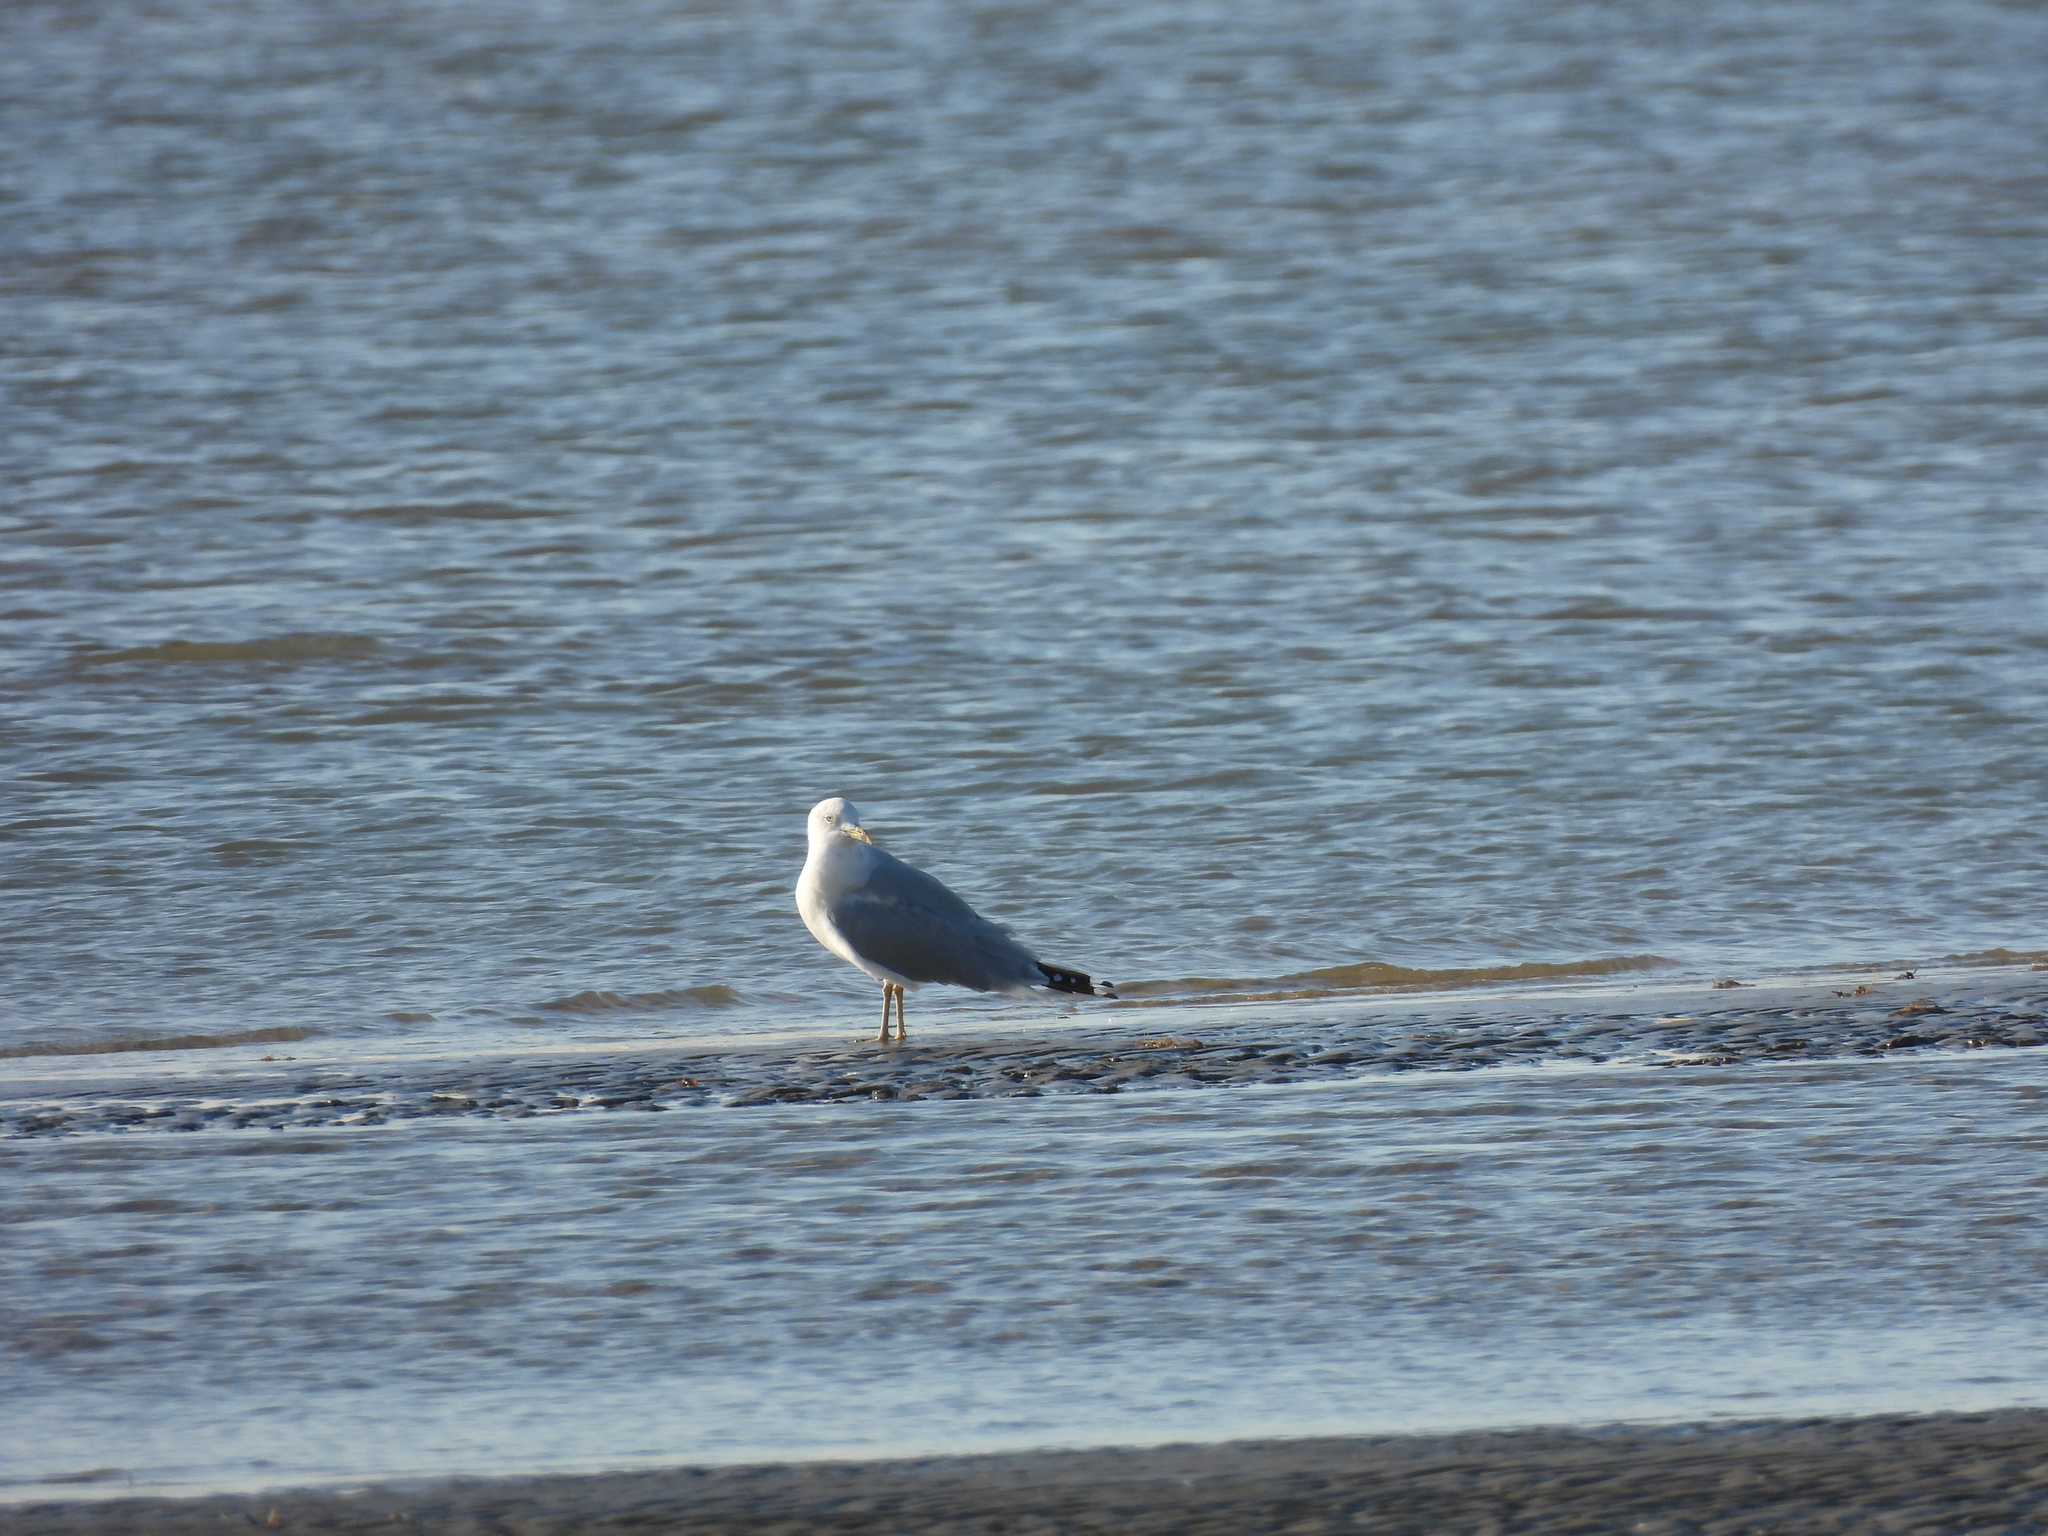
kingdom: Animalia
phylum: Chordata
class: Aves
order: Charadriiformes
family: Laridae
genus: Larus
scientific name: Larus delawarensis
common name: Ring-billed gull
